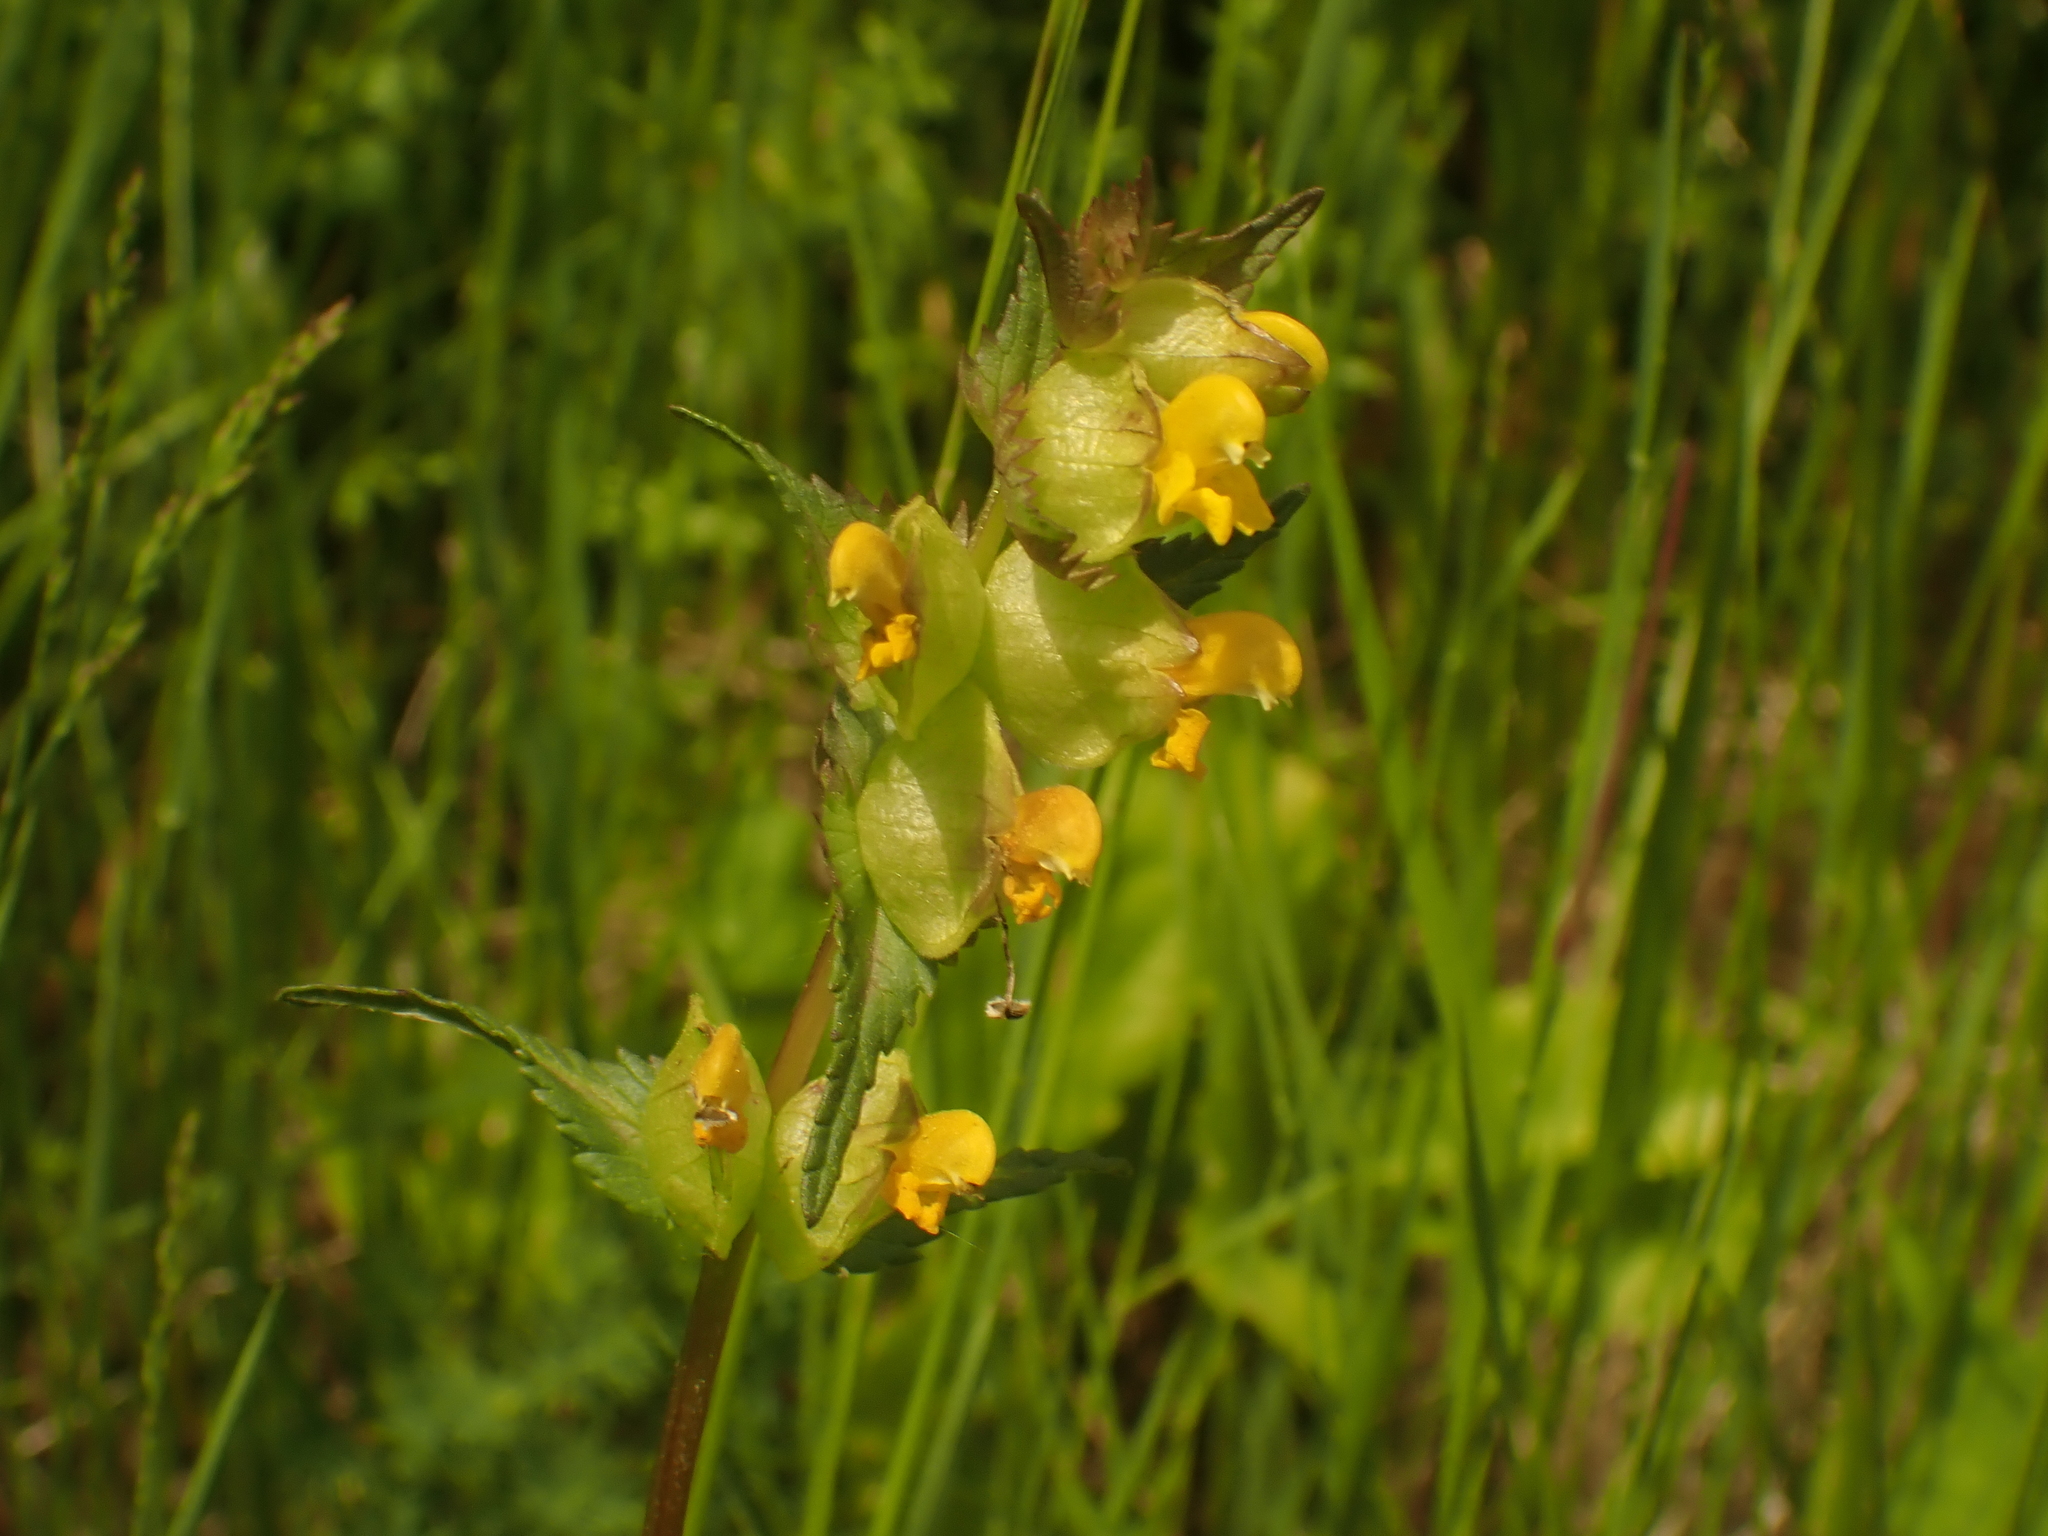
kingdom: Plantae
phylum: Tracheophyta
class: Magnoliopsida
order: Lamiales
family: Orobanchaceae
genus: Rhinanthus
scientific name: Rhinanthus minor
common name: Yellow-rattle
